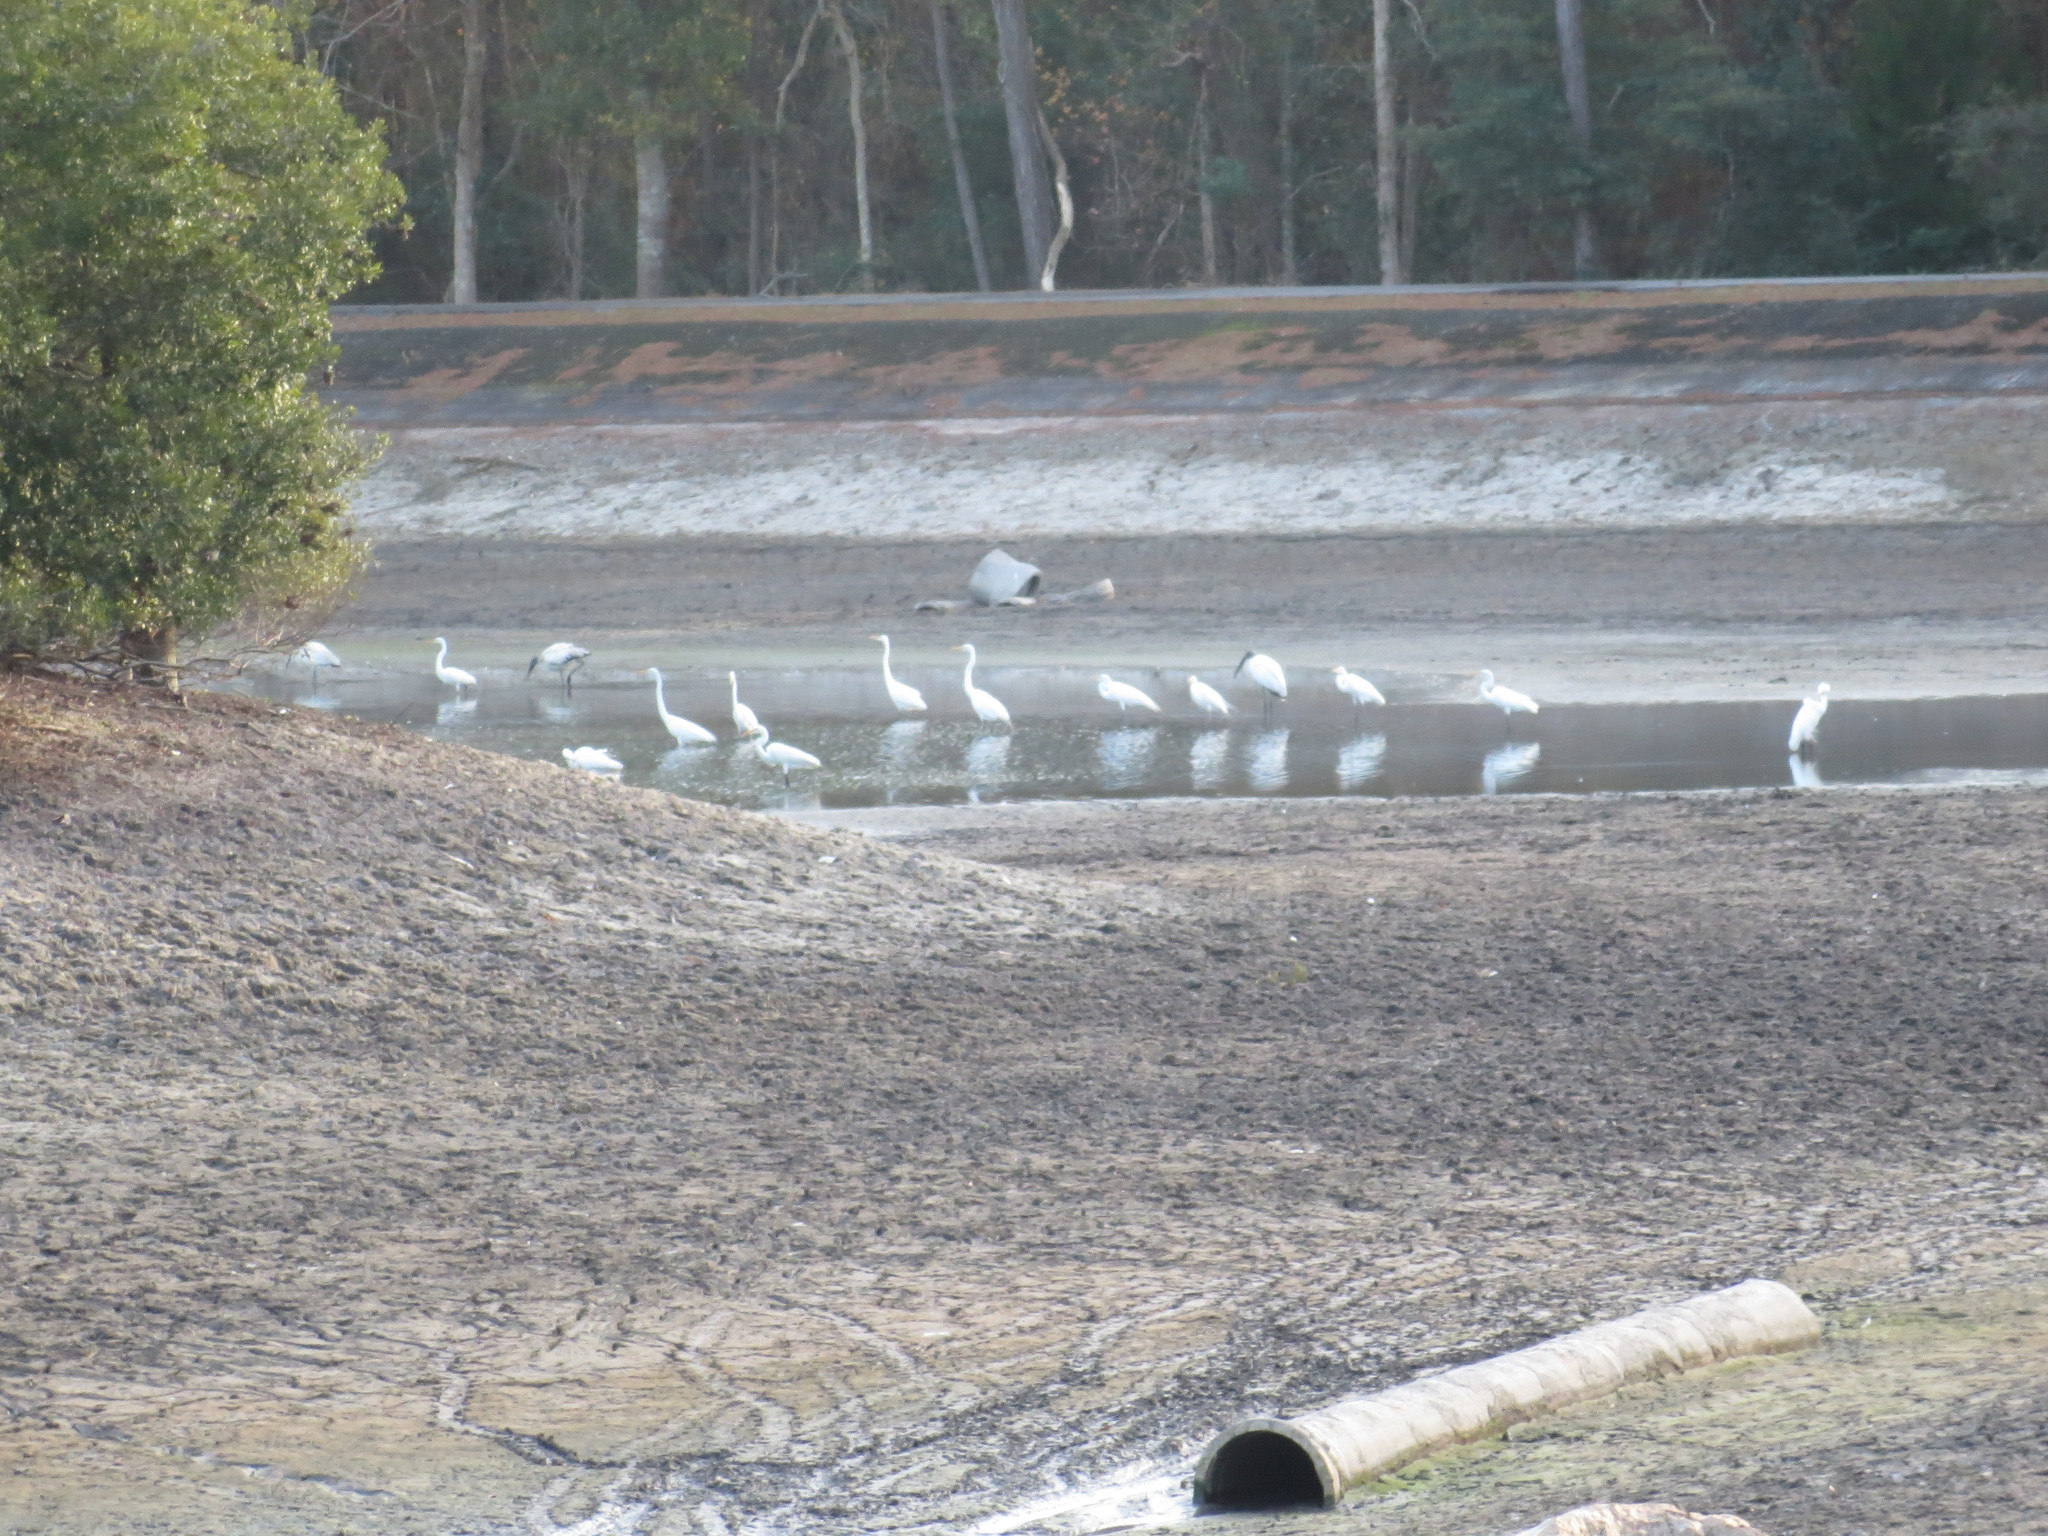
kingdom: Animalia
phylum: Chordata
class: Aves
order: Ciconiiformes
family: Ciconiidae
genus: Mycteria
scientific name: Mycteria americana
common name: Wood stork
